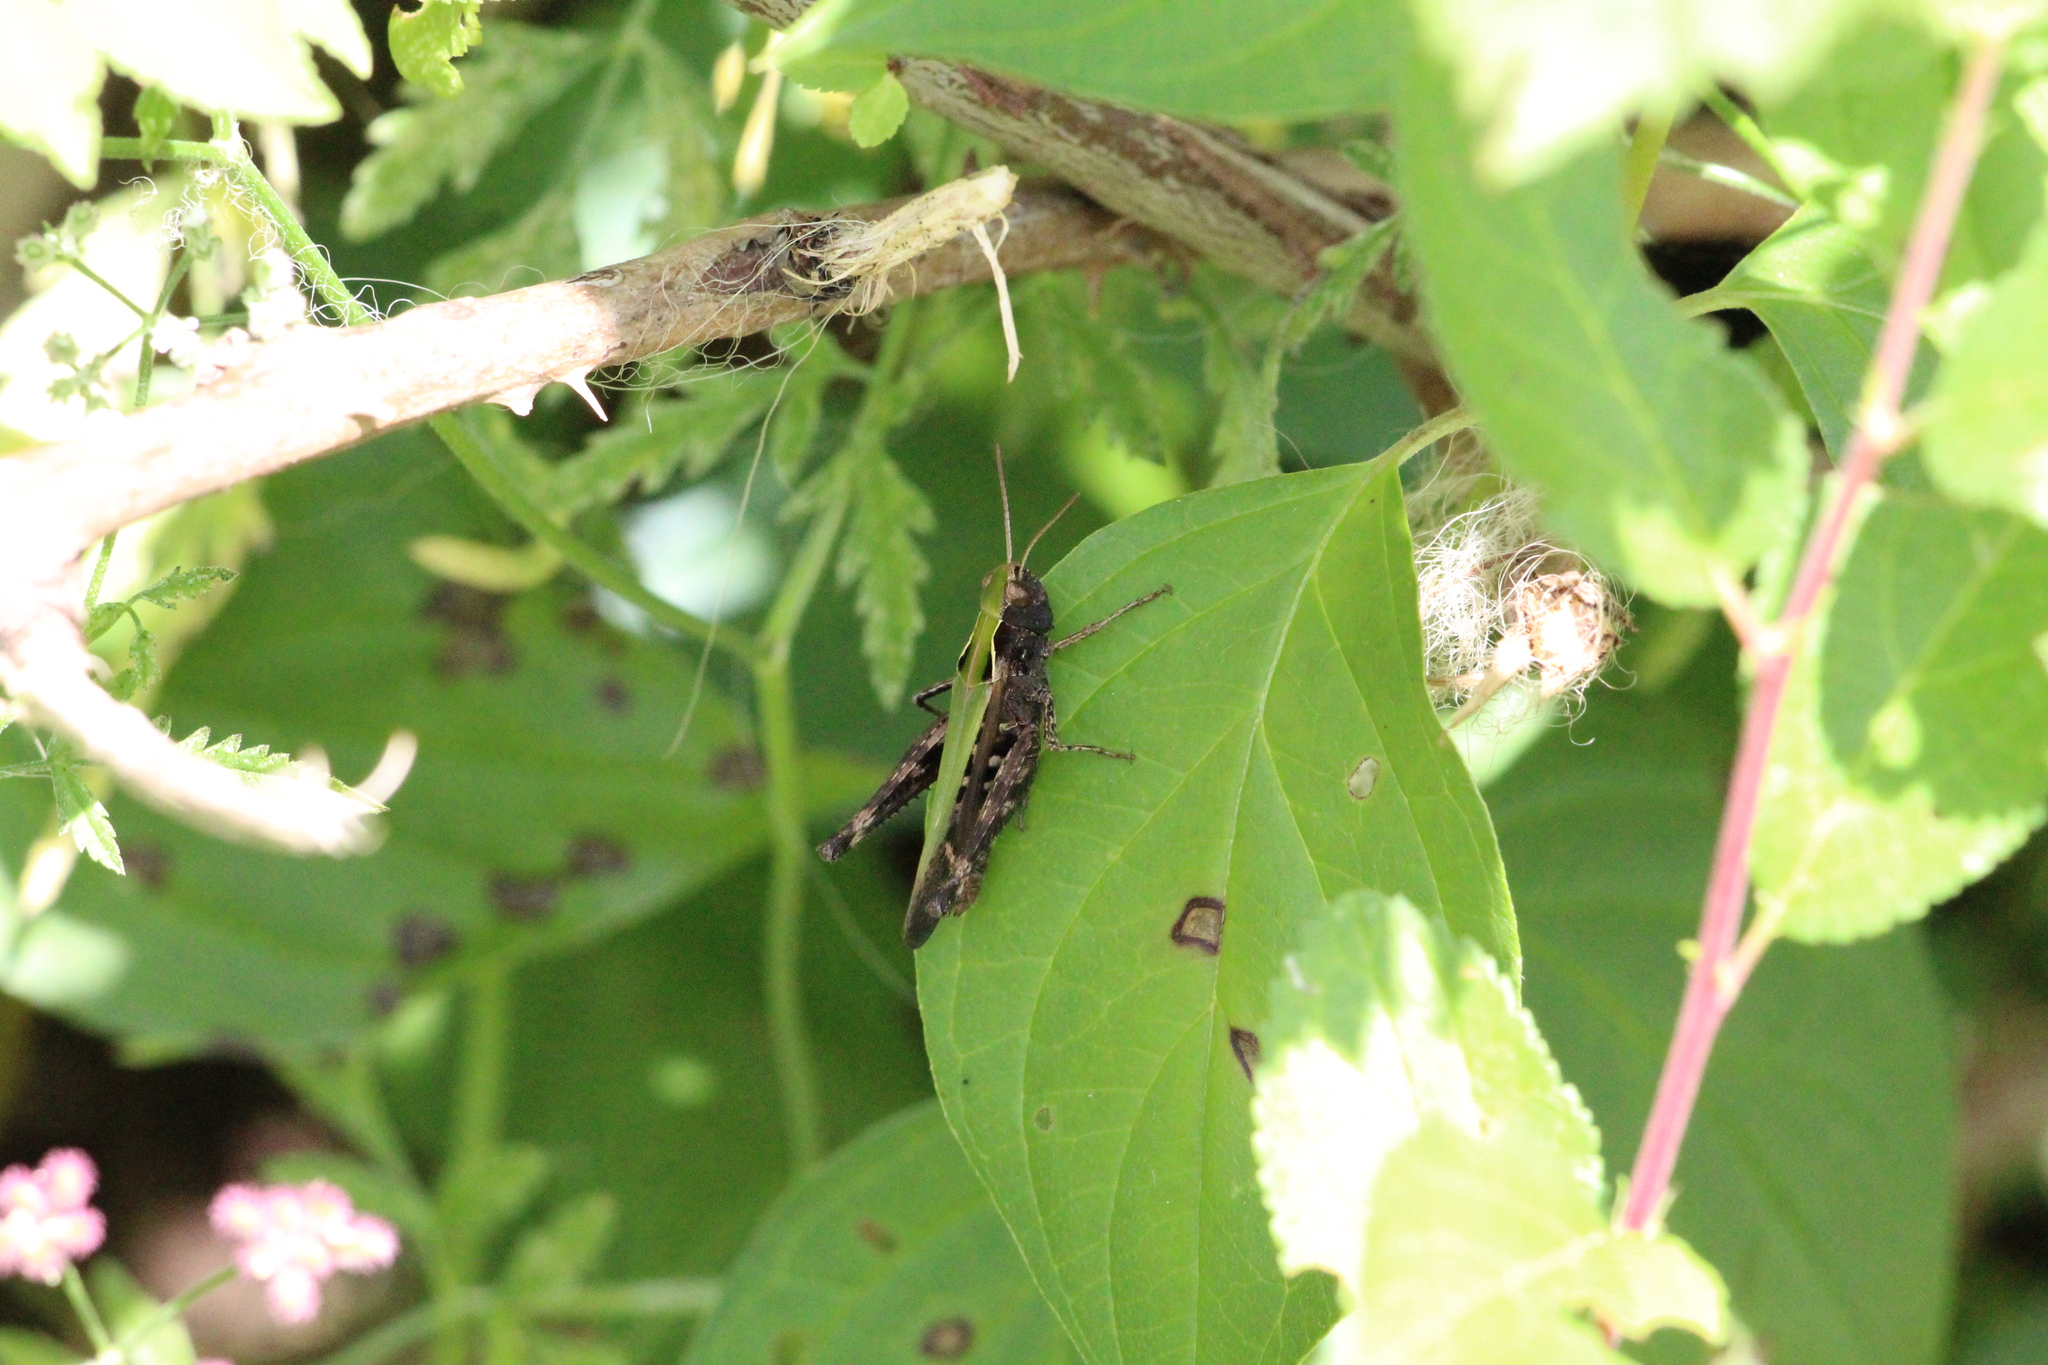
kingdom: Animalia
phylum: Arthropoda
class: Insecta
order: Orthoptera
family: Acrididae
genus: Omocestus
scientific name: Omocestus rufipes
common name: Woodland grasshopper
